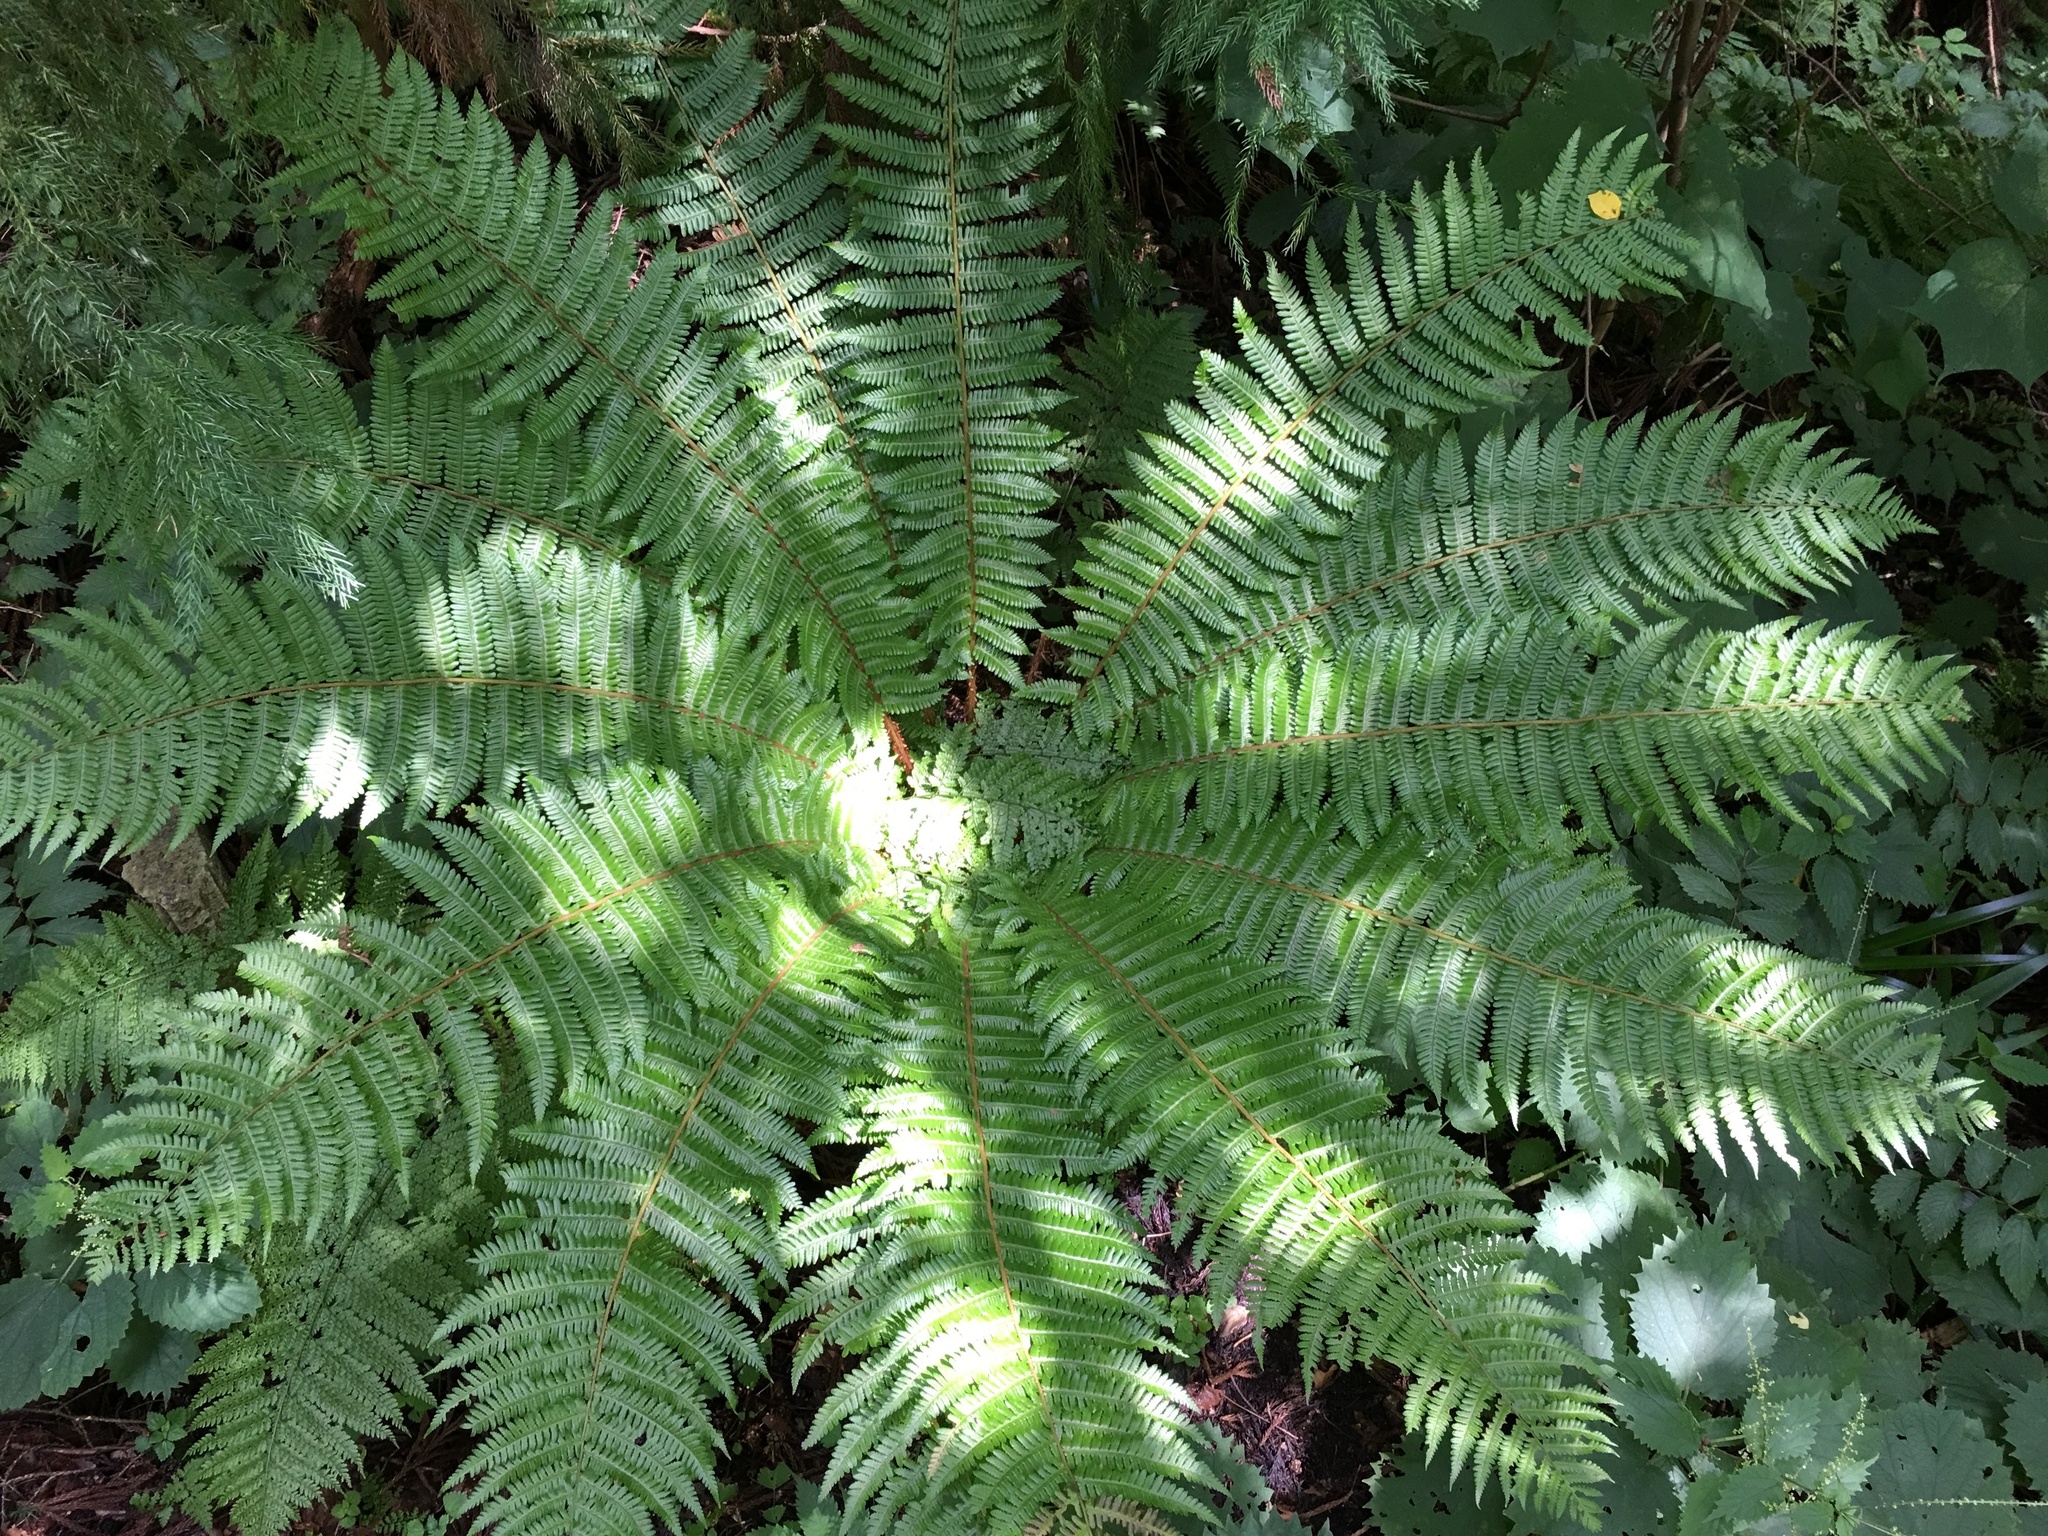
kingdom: Plantae
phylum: Tracheophyta
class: Polypodiopsida
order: Polypodiales
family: Dryopteridaceae
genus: Dryopteris
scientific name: Dryopteris crassirhizoma
